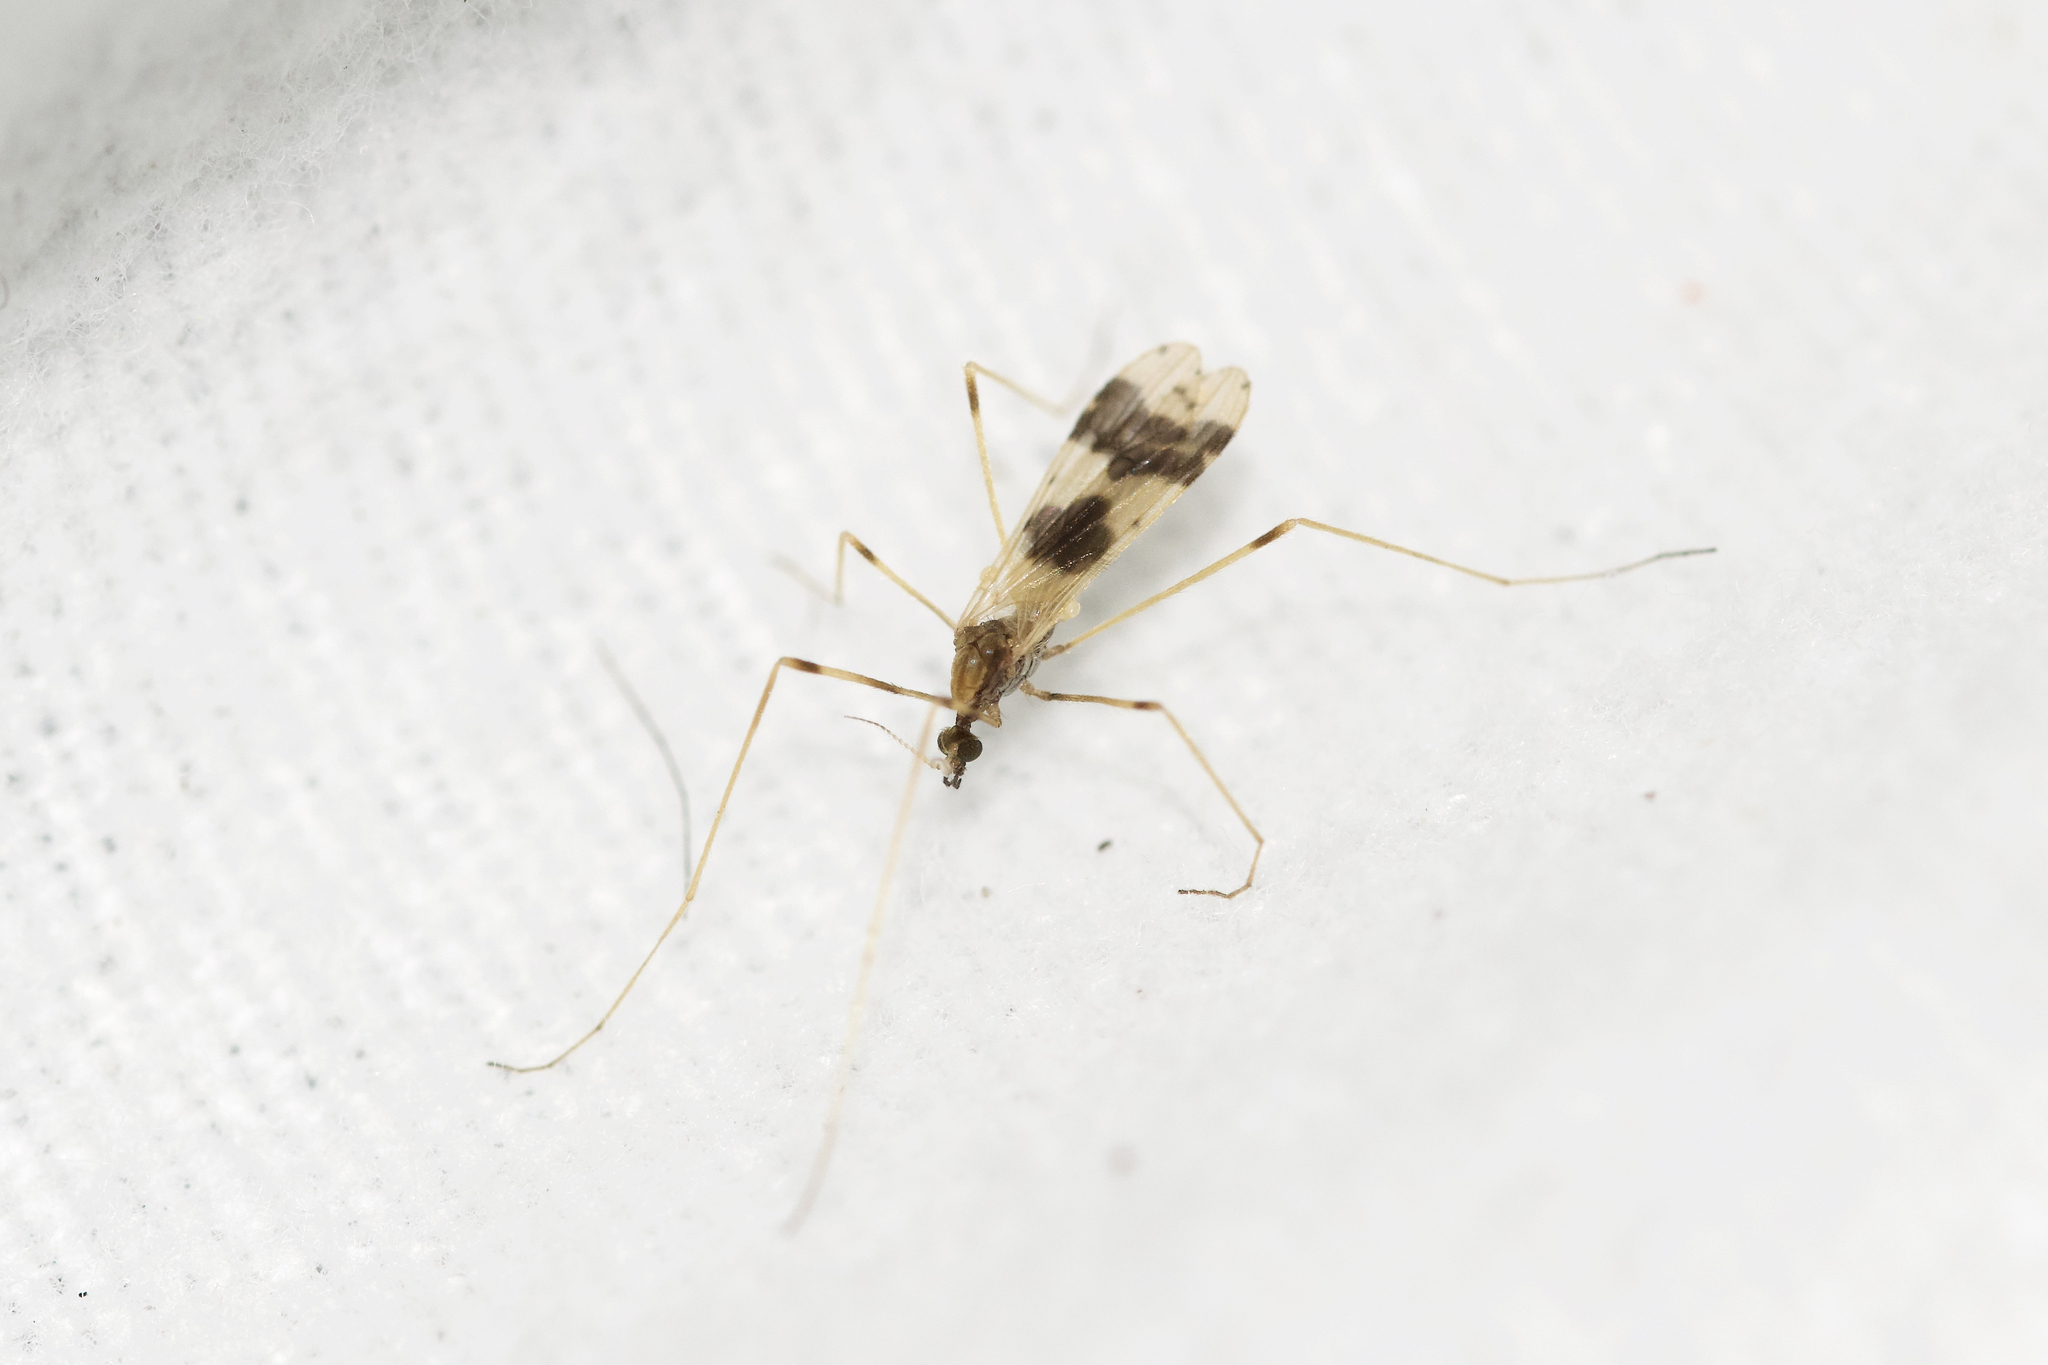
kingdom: Animalia
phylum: Arthropoda
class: Insecta
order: Diptera
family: Limoniidae
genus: Ilisia
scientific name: Ilisia venusta
